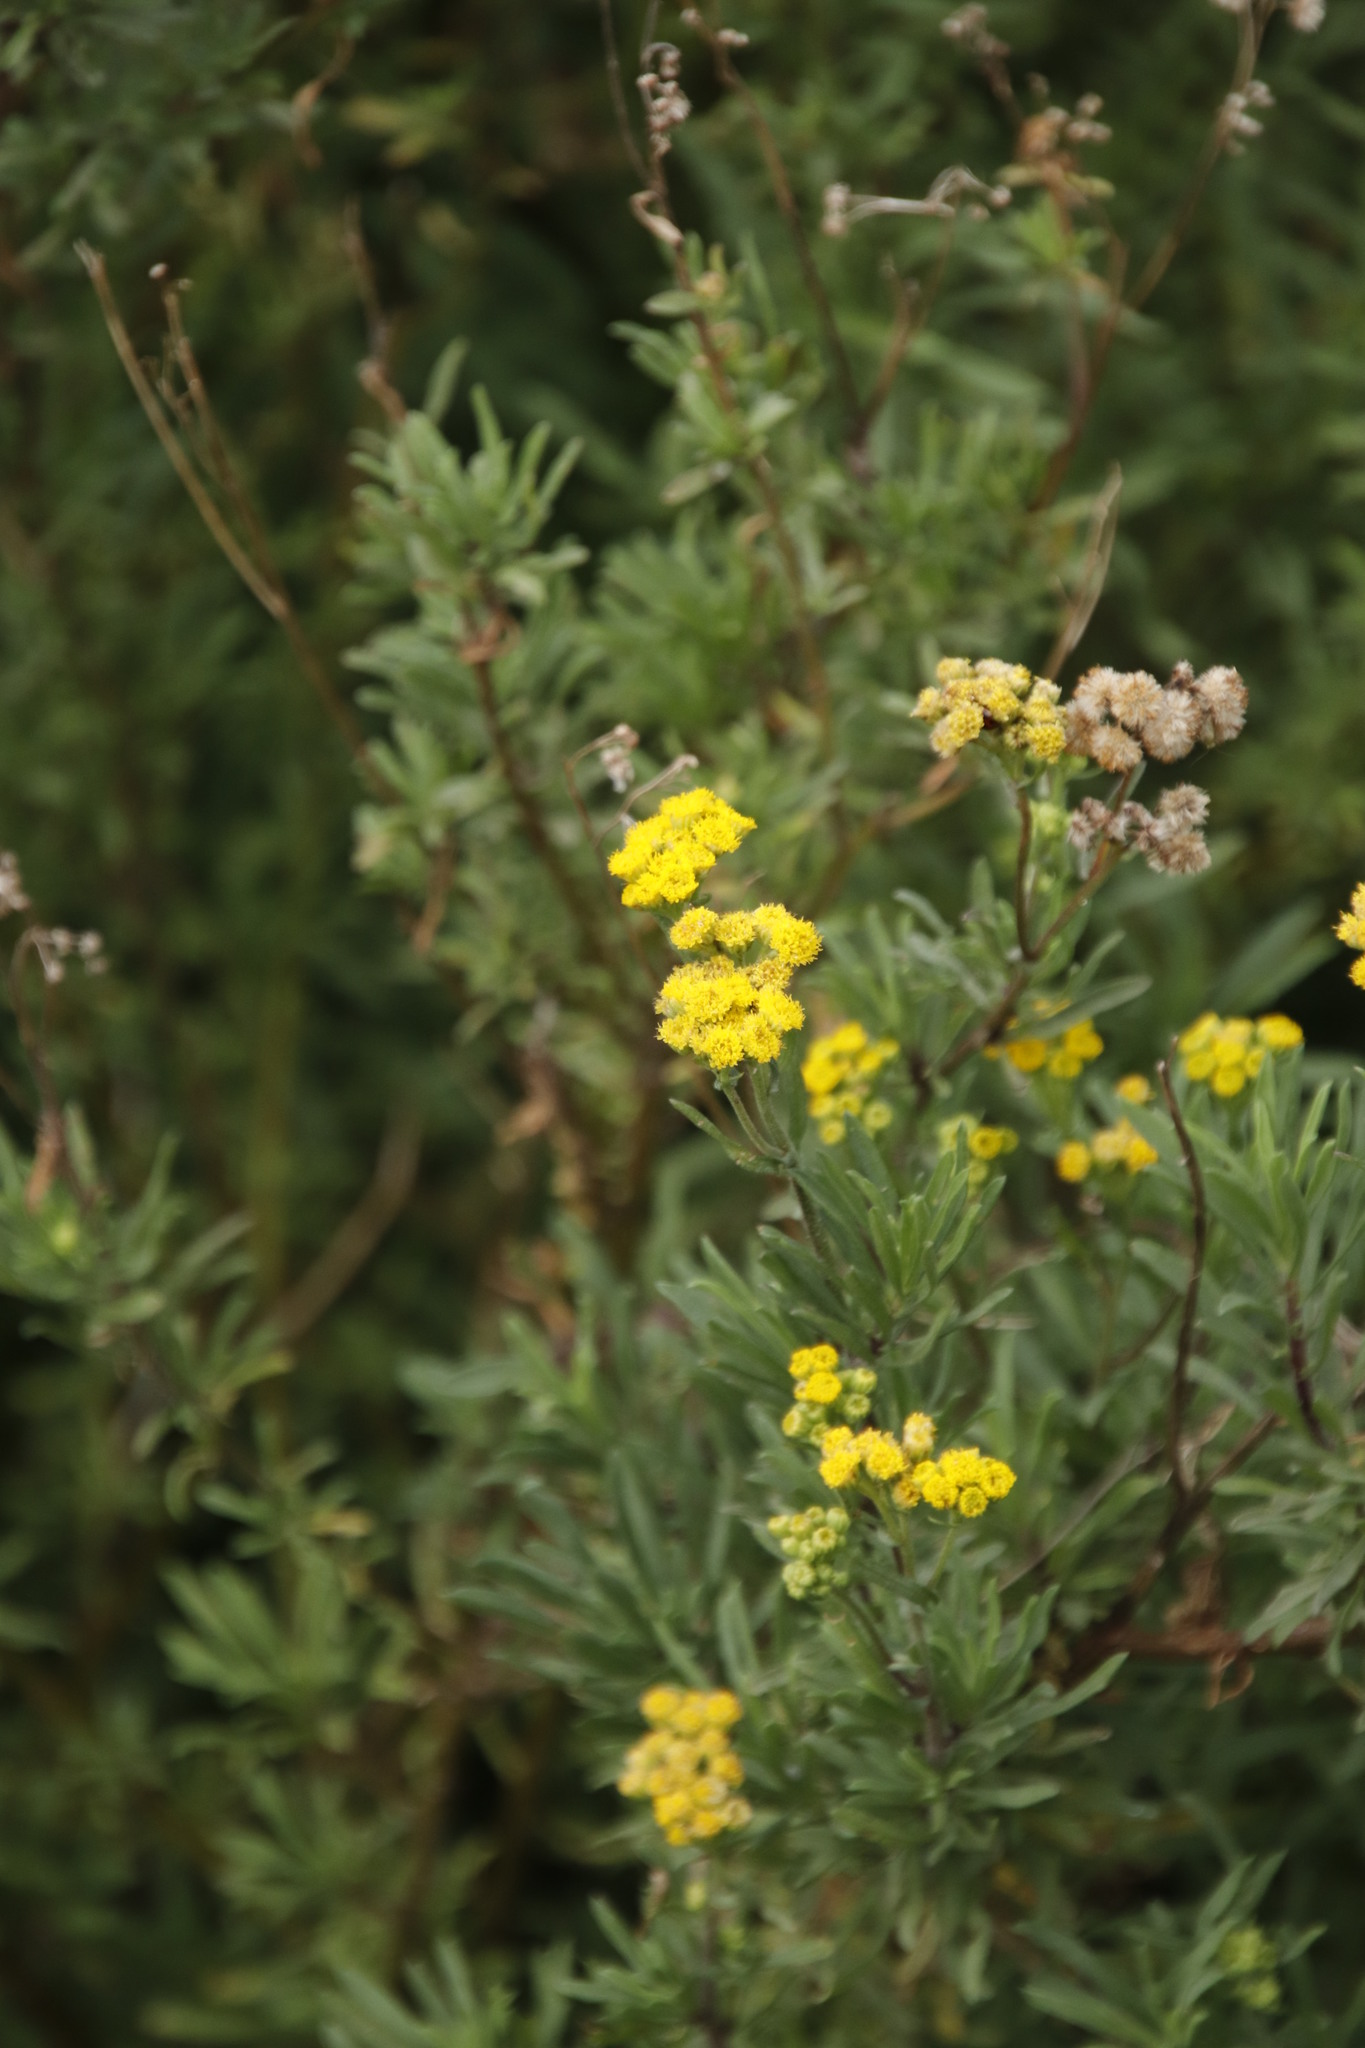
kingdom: Plantae
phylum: Tracheophyta
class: Magnoliopsida
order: Asterales
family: Asteraceae
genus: Nidorella
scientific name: Nidorella foetida
